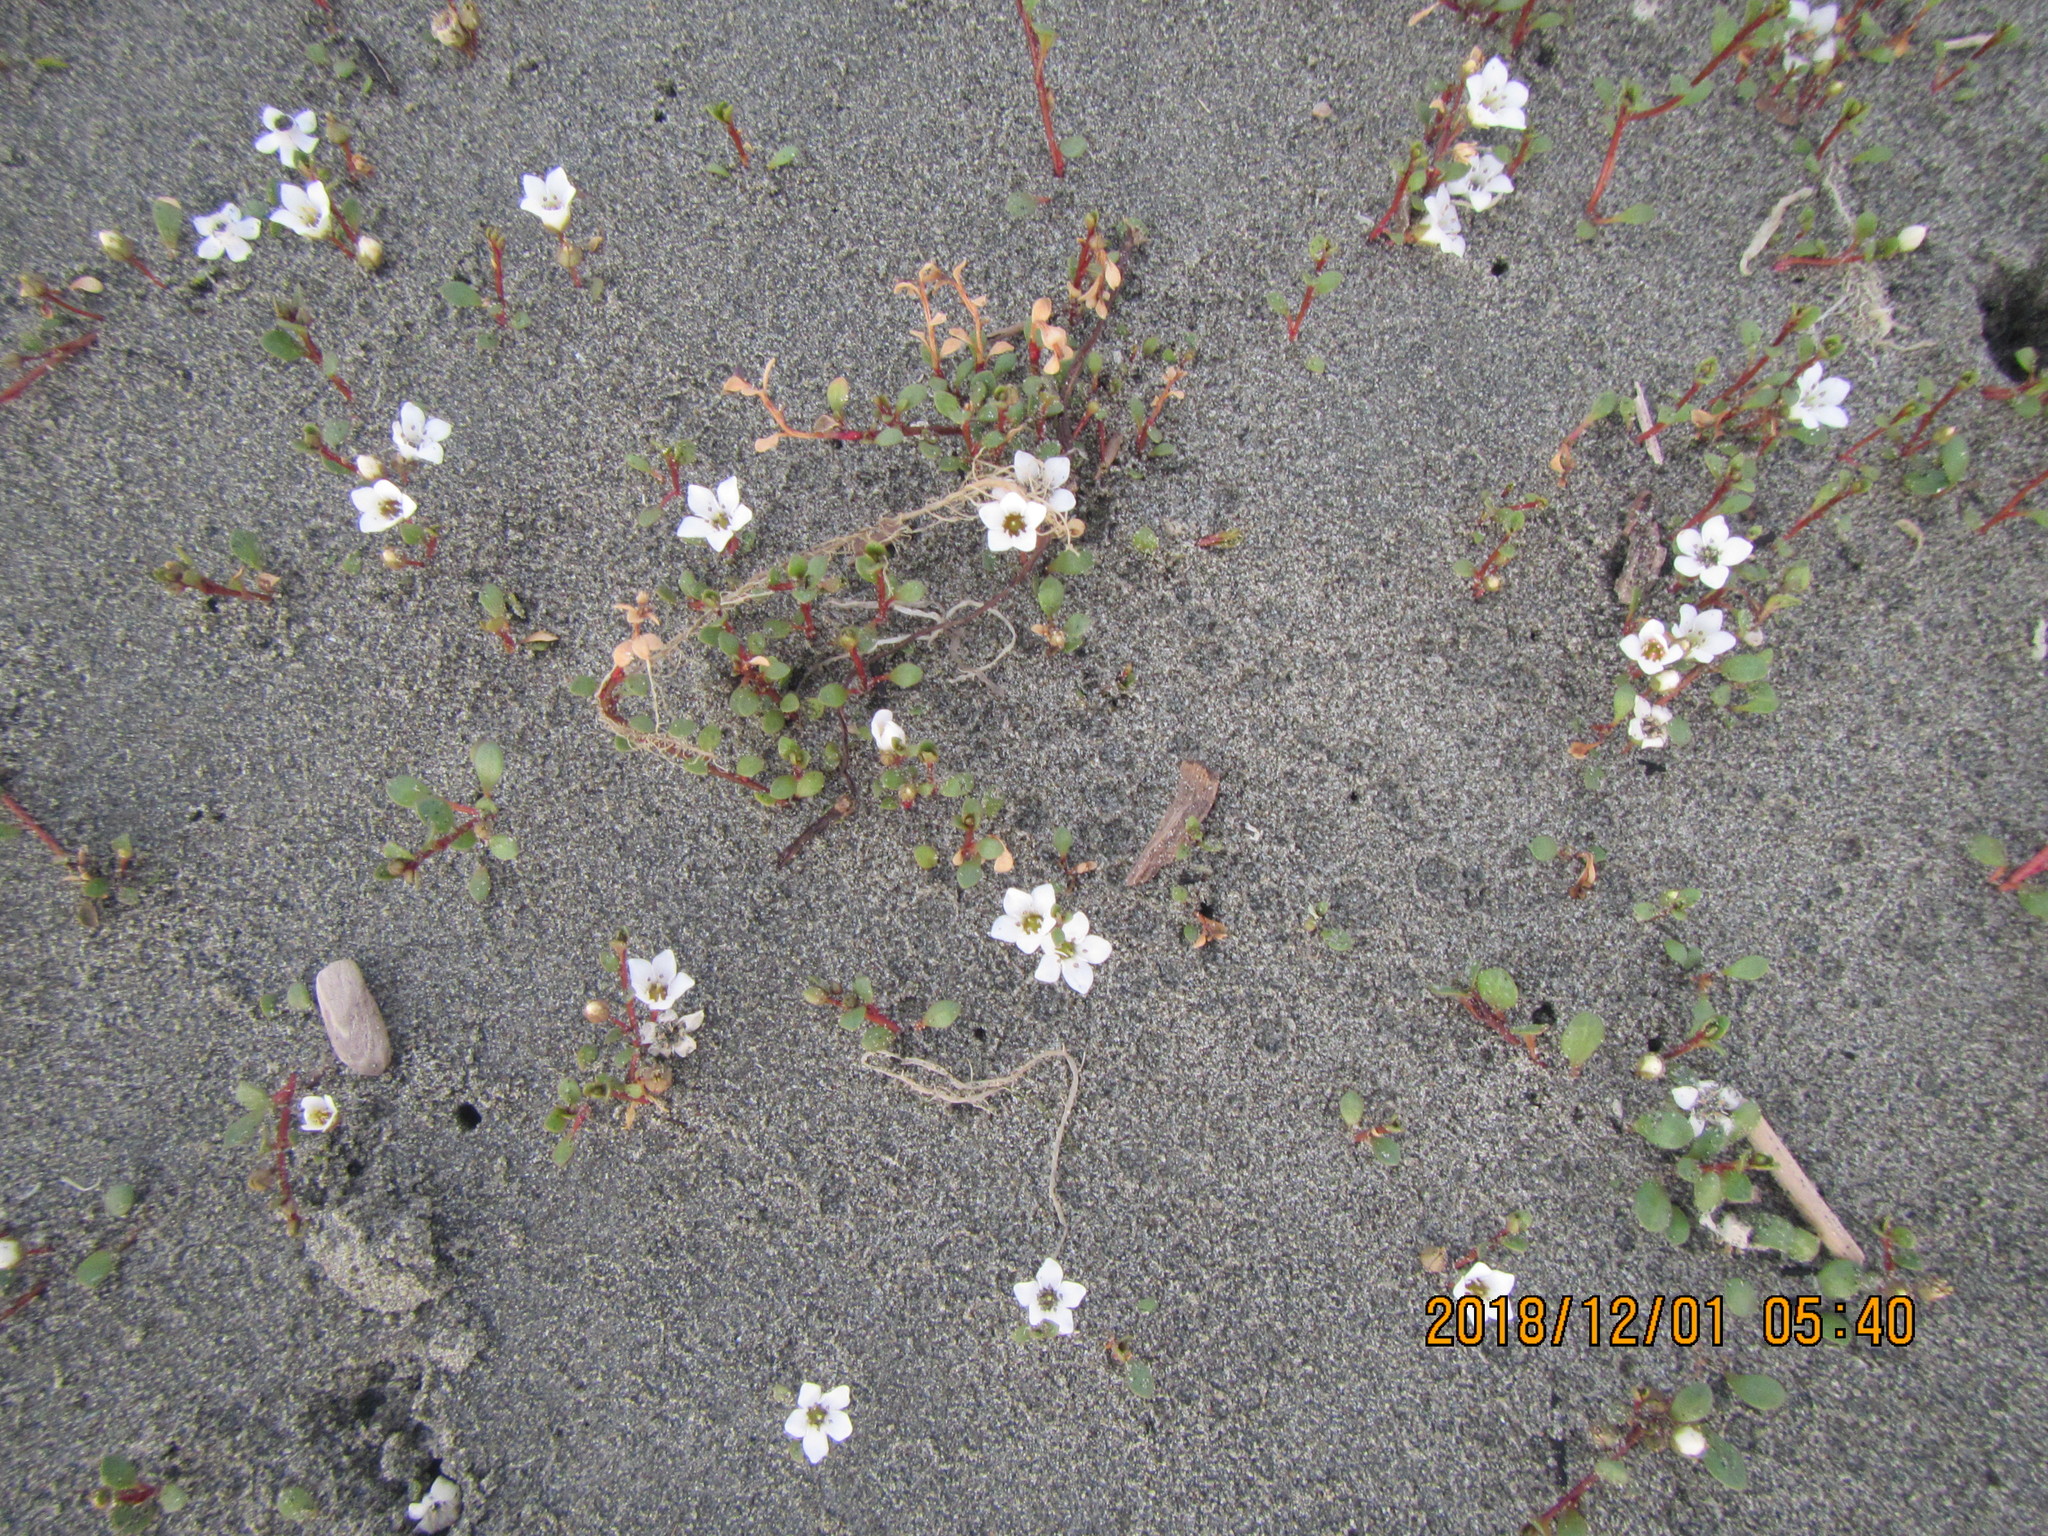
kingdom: Plantae
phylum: Tracheophyta
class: Magnoliopsida
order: Ericales
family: Primulaceae
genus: Samolus
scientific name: Samolus repens
